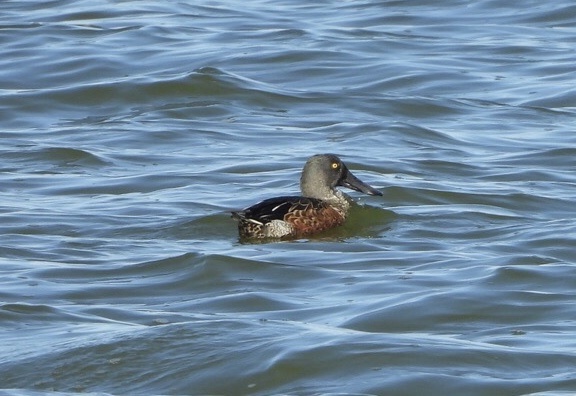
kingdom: Animalia
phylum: Chordata
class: Aves
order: Anseriformes
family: Anatidae
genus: Spatula
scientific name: Spatula clypeata
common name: Northern shoveler
